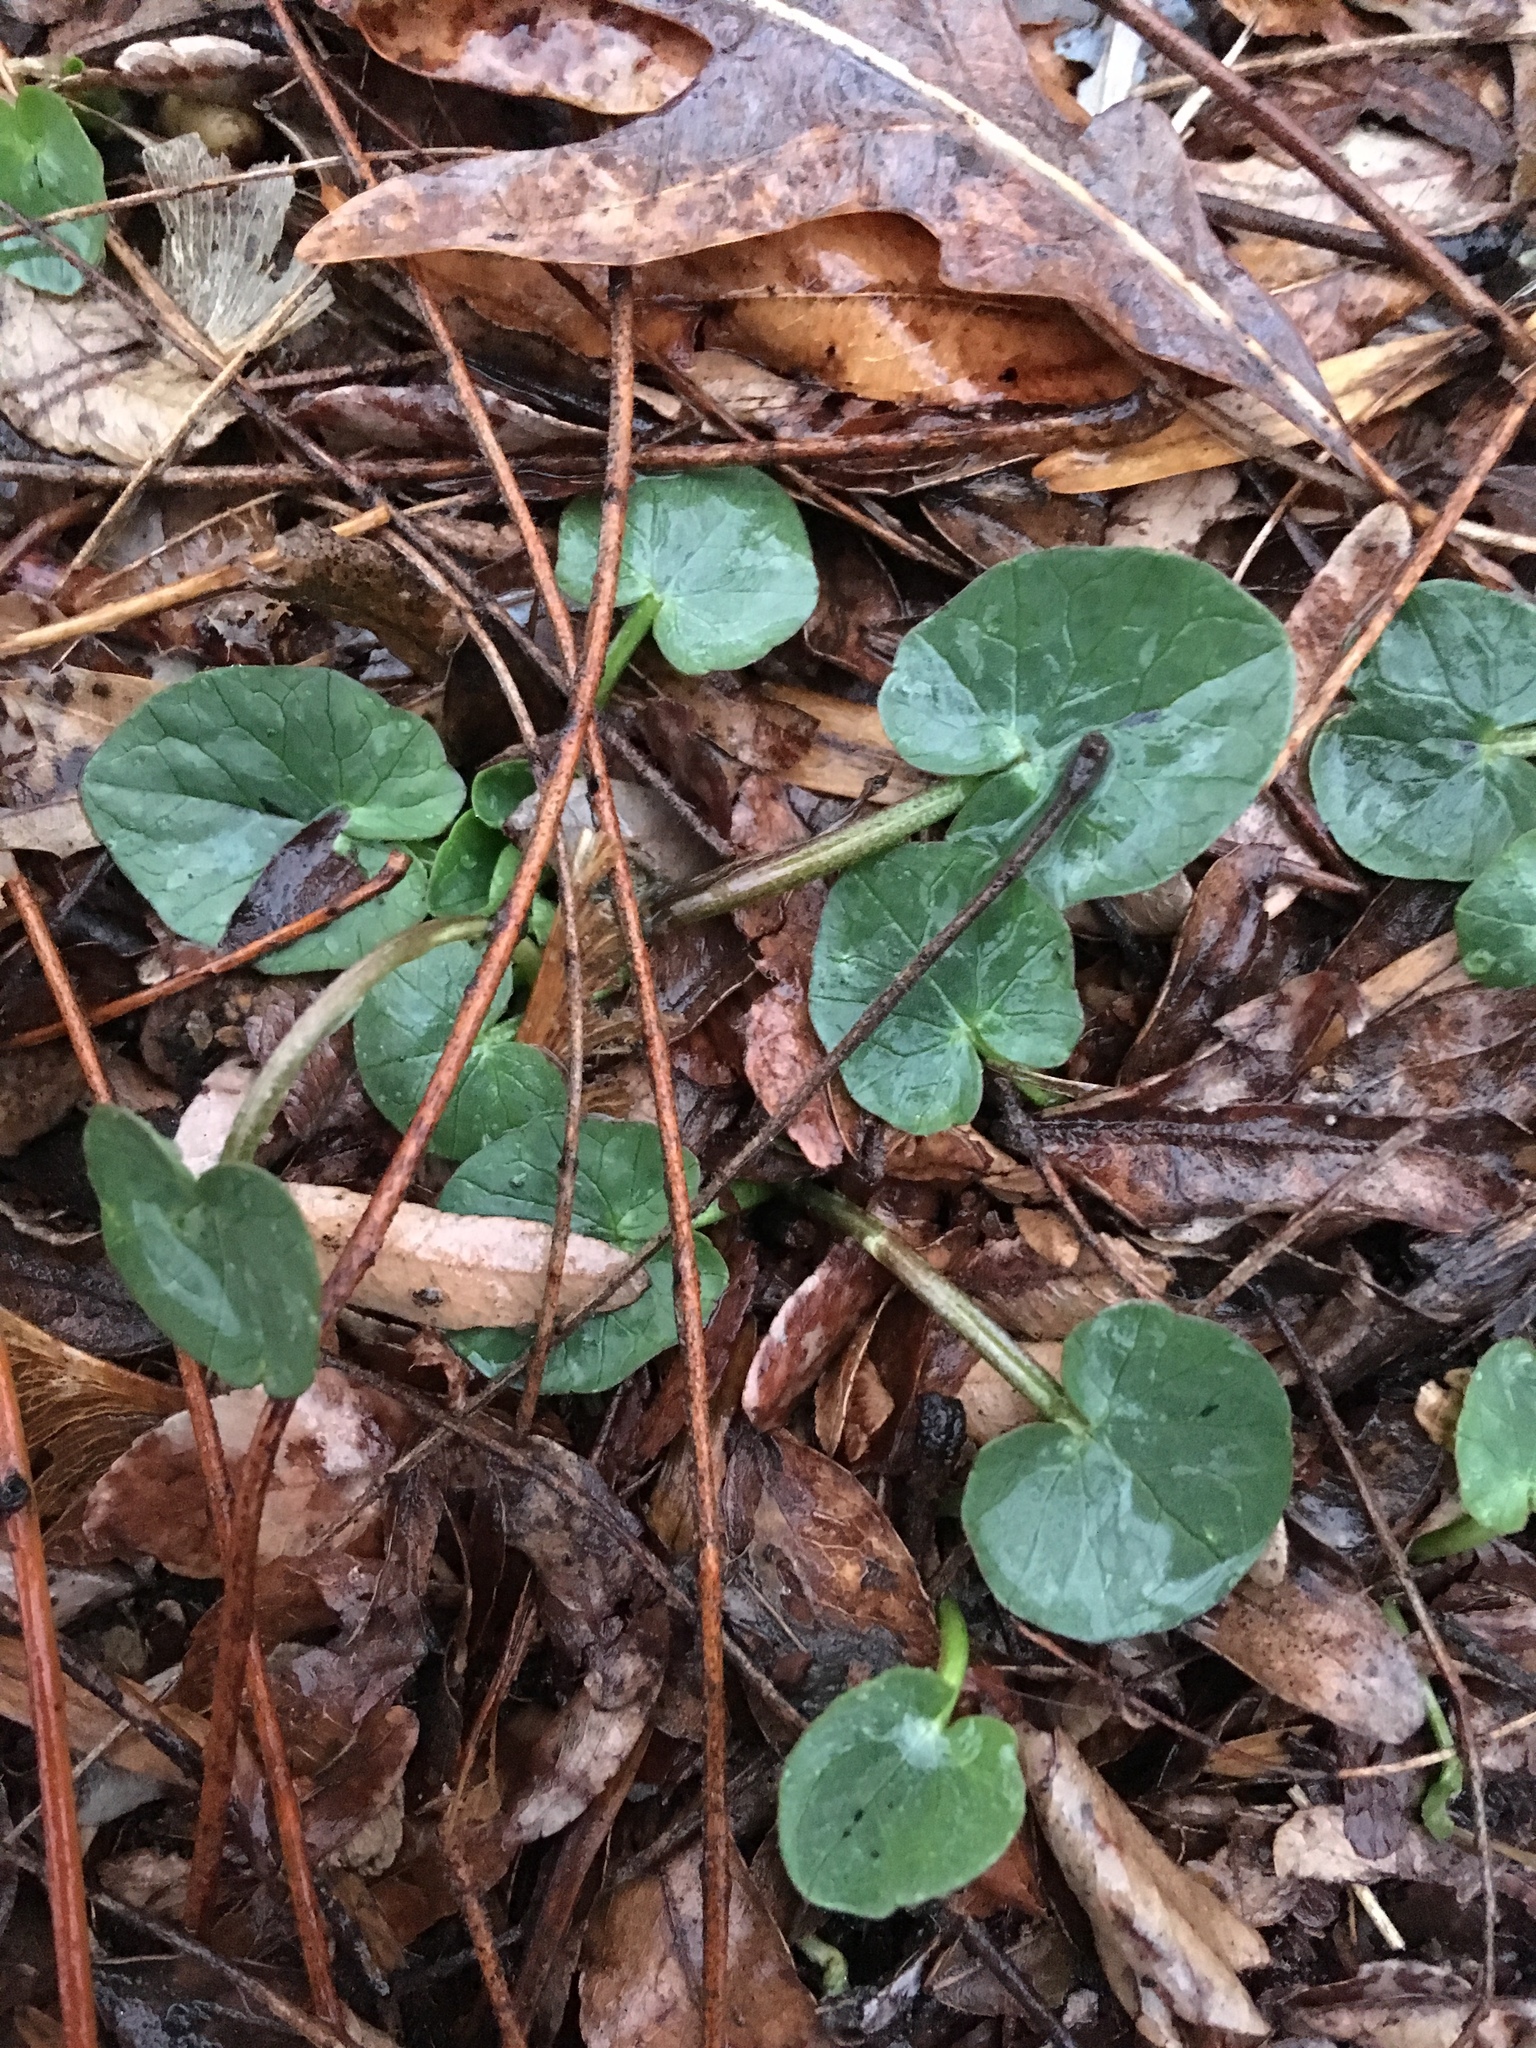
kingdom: Plantae
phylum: Tracheophyta
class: Magnoliopsida
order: Ranunculales
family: Ranunculaceae
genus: Ficaria
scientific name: Ficaria verna
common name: Lesser celandine
